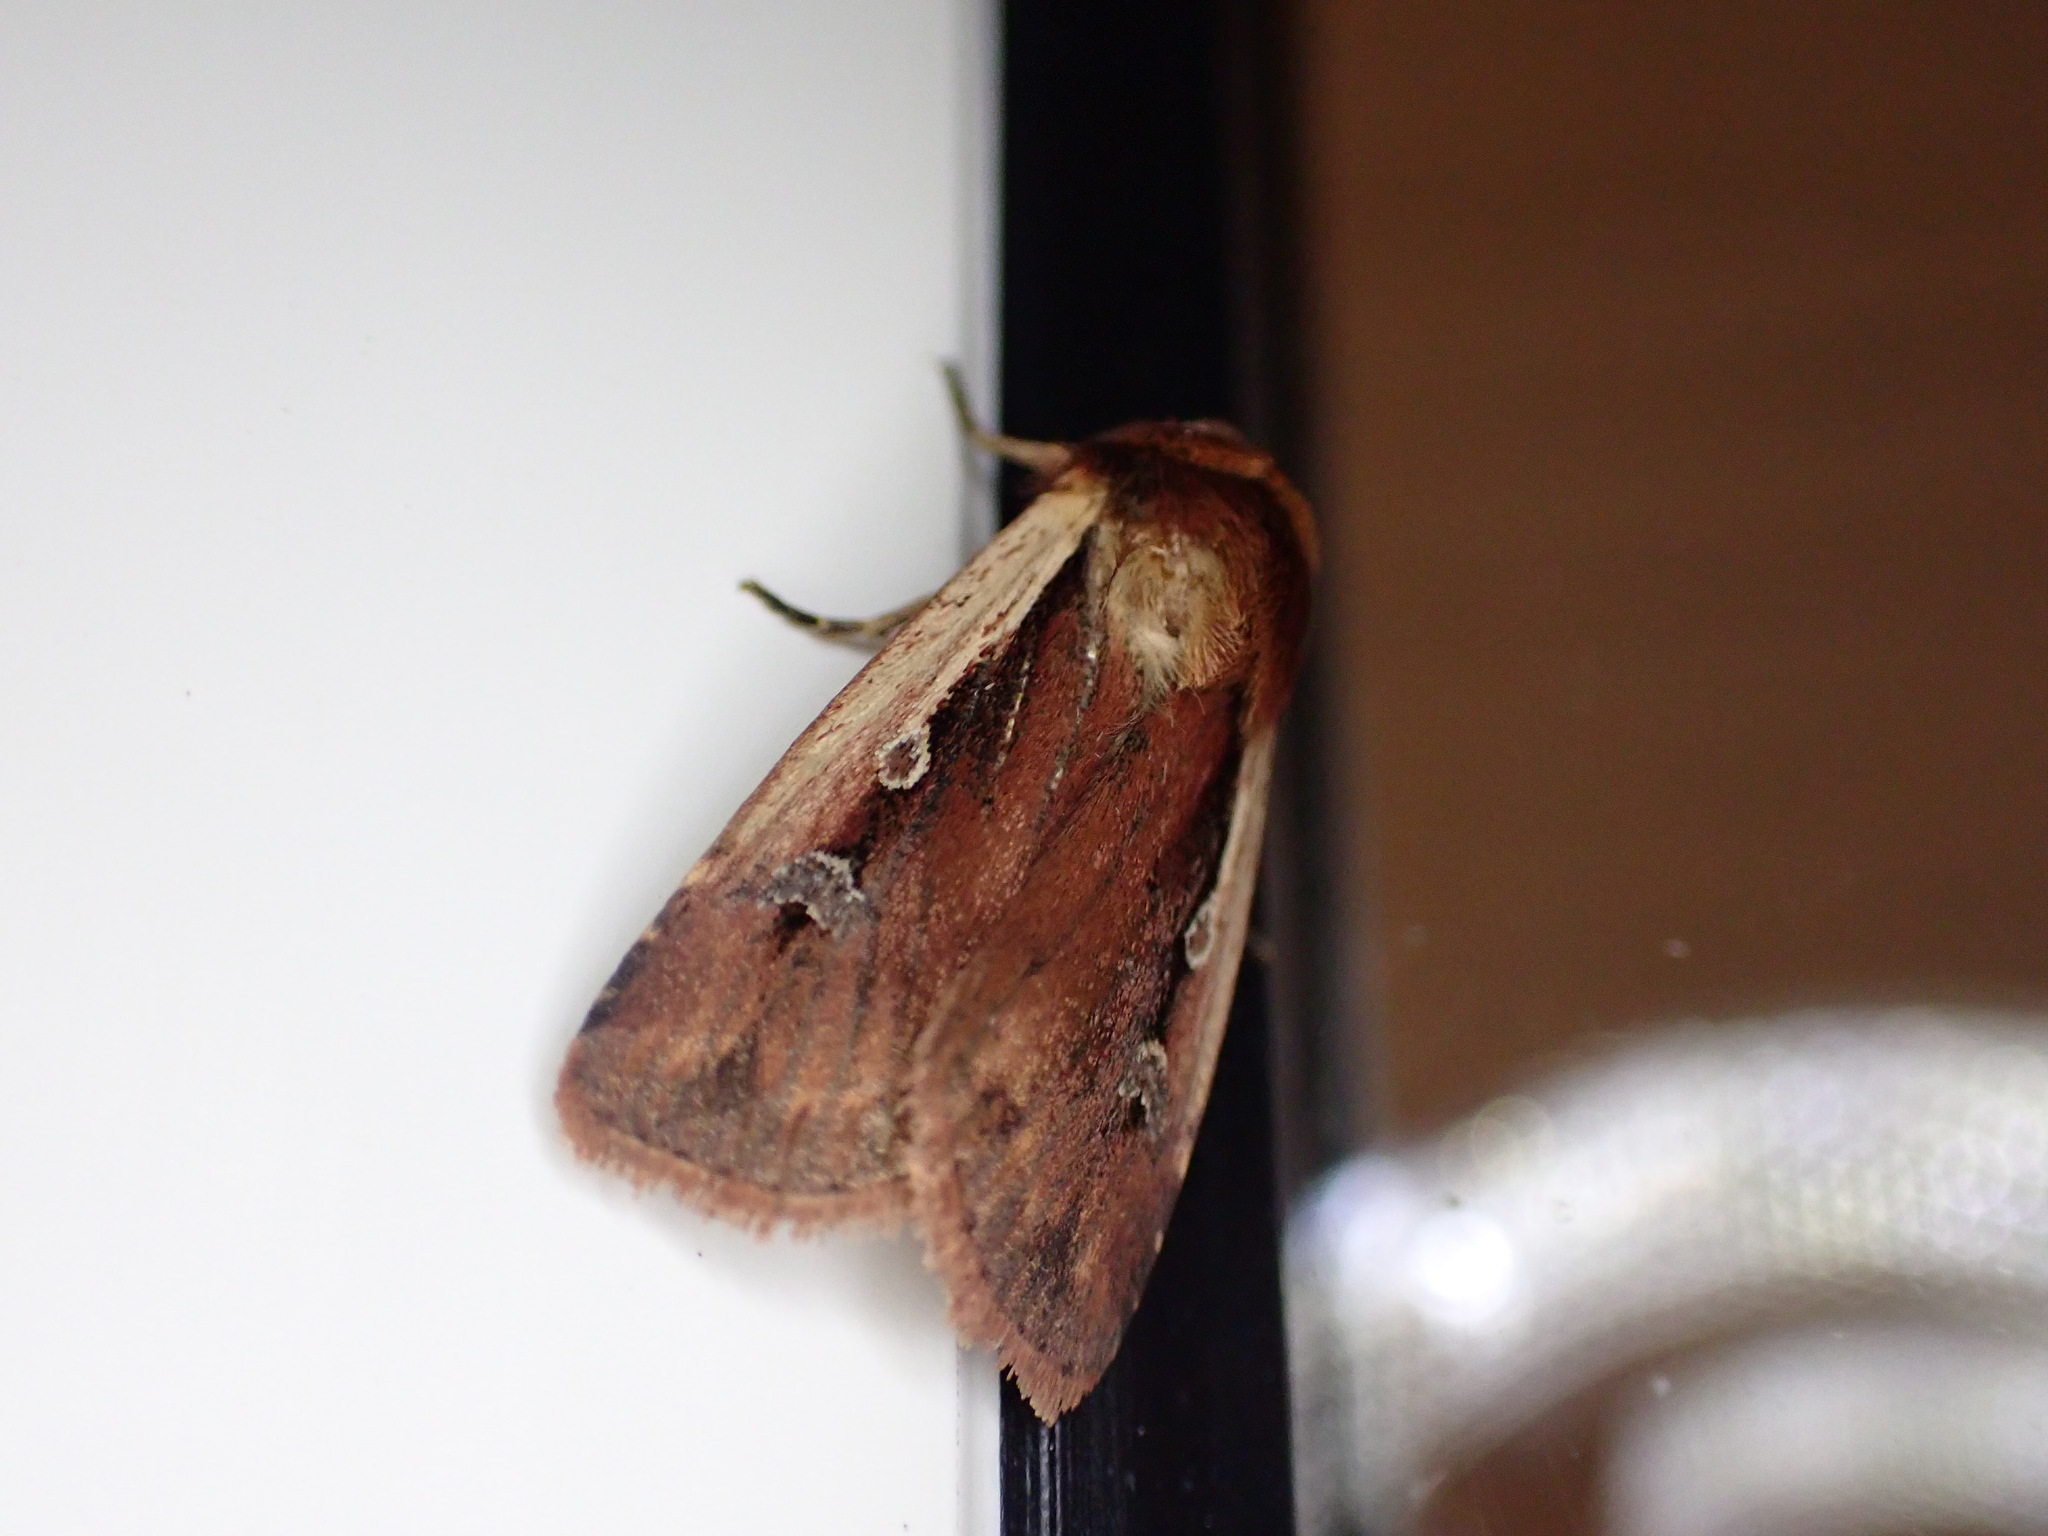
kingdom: Animalia
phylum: Arthropoda
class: Insecta
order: Lepidoptera
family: Noctuidae
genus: Ochropleura
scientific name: Ochropleura plecta
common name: Flame shoulder
